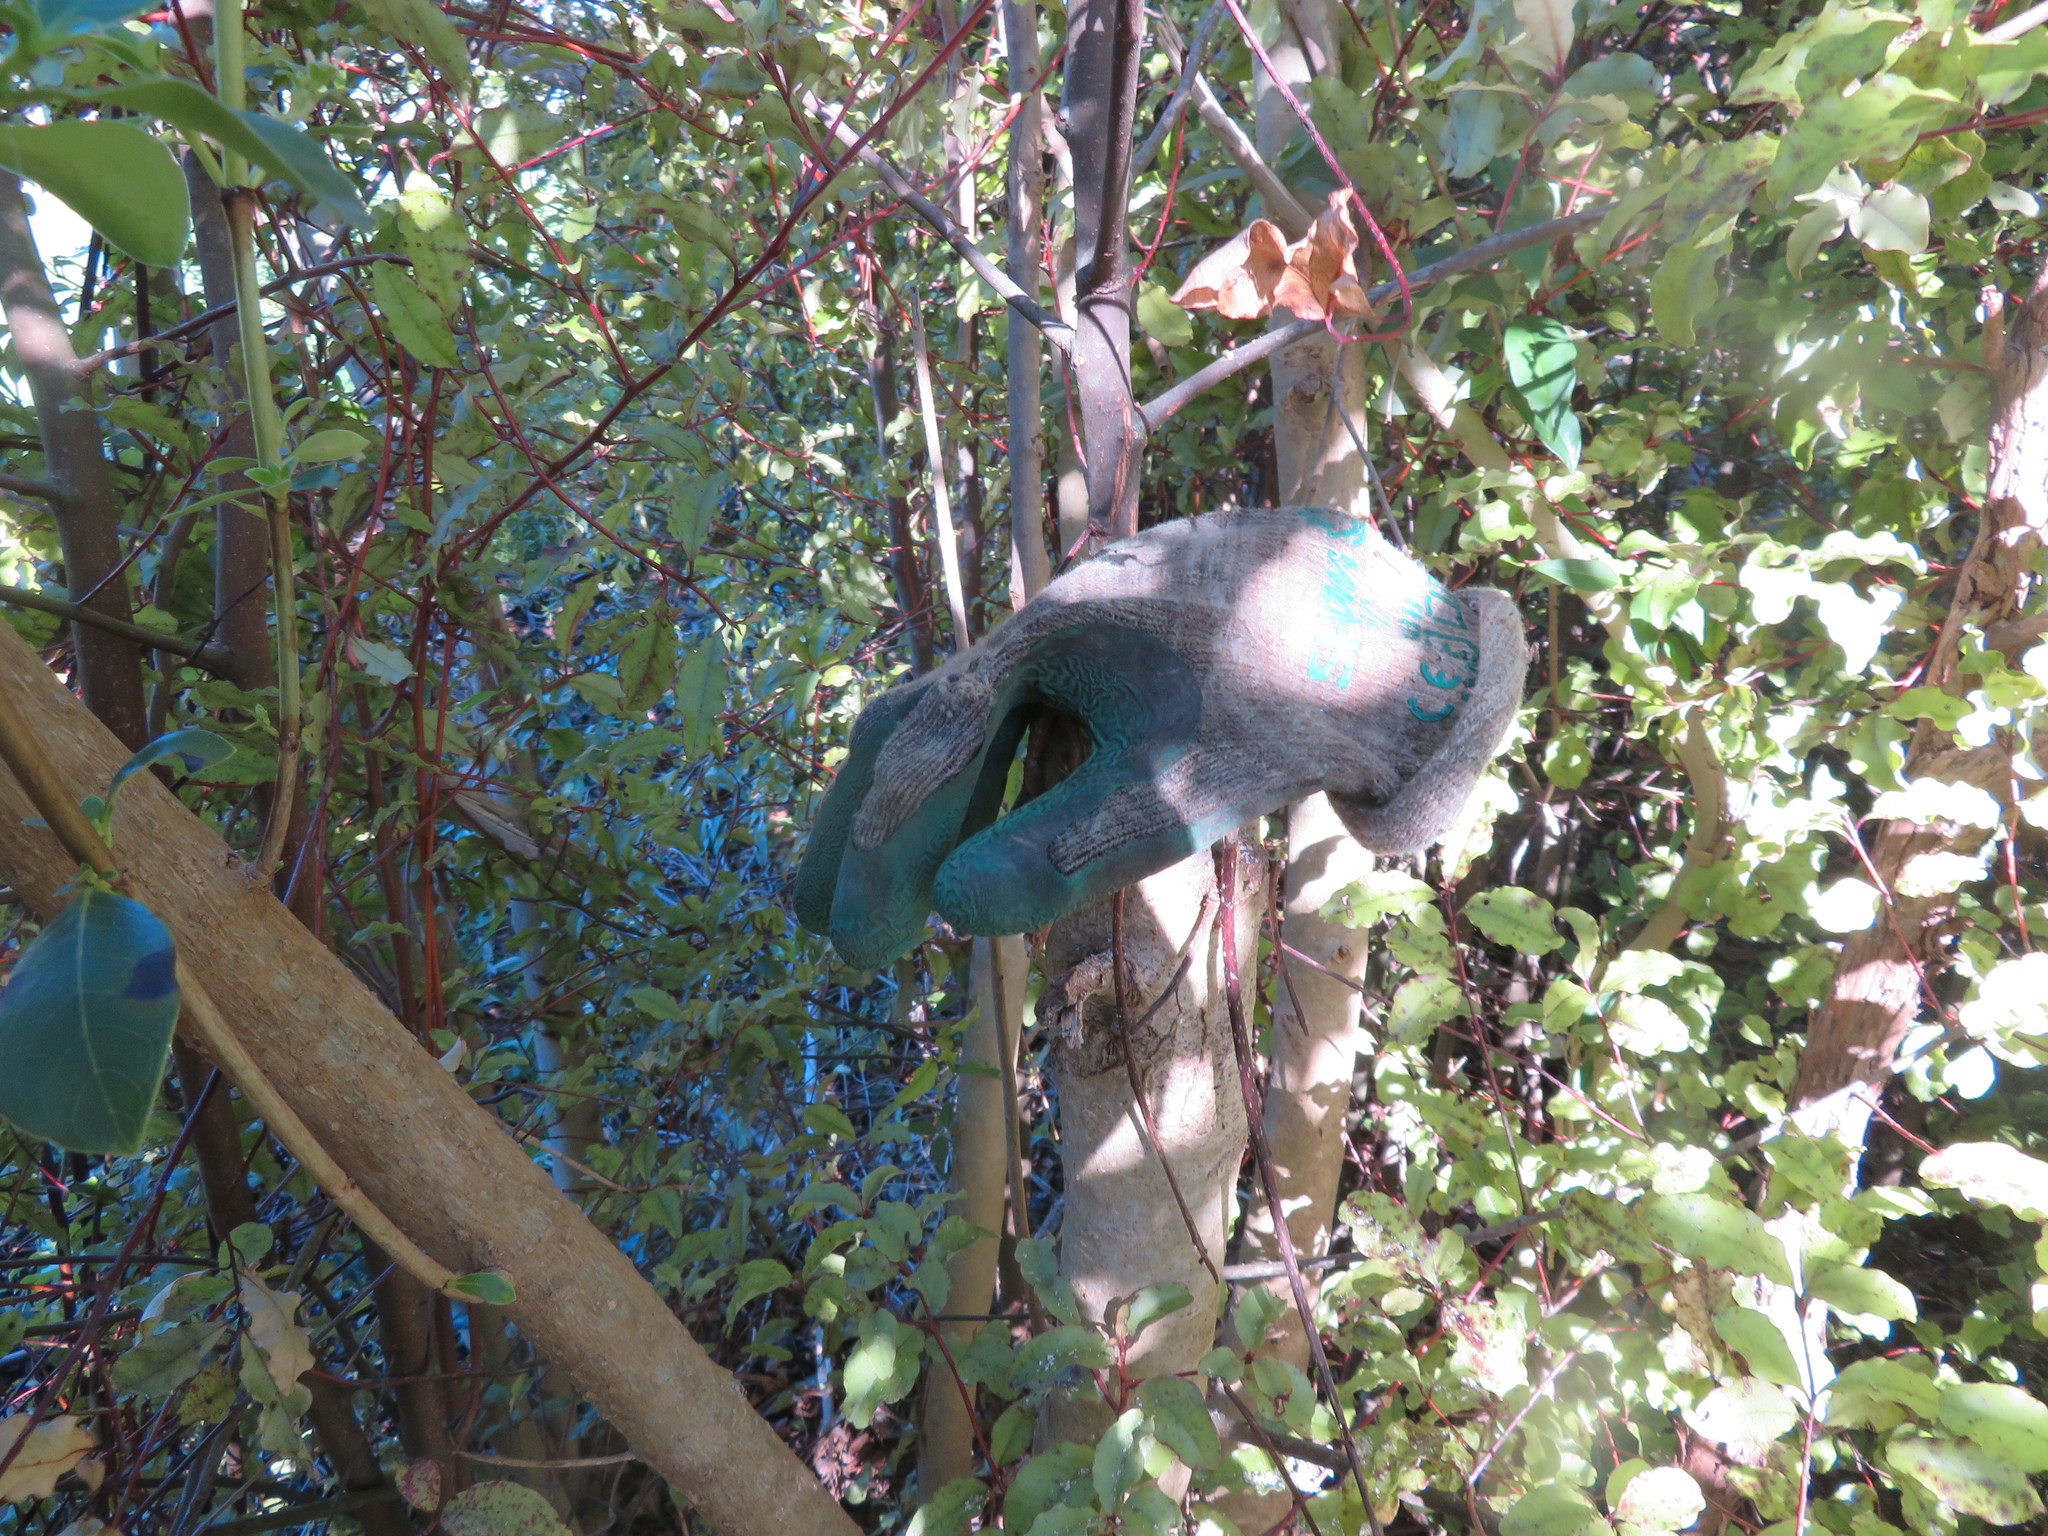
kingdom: Plantae
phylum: Tracheophyta
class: Magnoliopsida
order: Lamiales
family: Oleaceae
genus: Ligustrum
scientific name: Ligustrum lucidum
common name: Glossy privet
